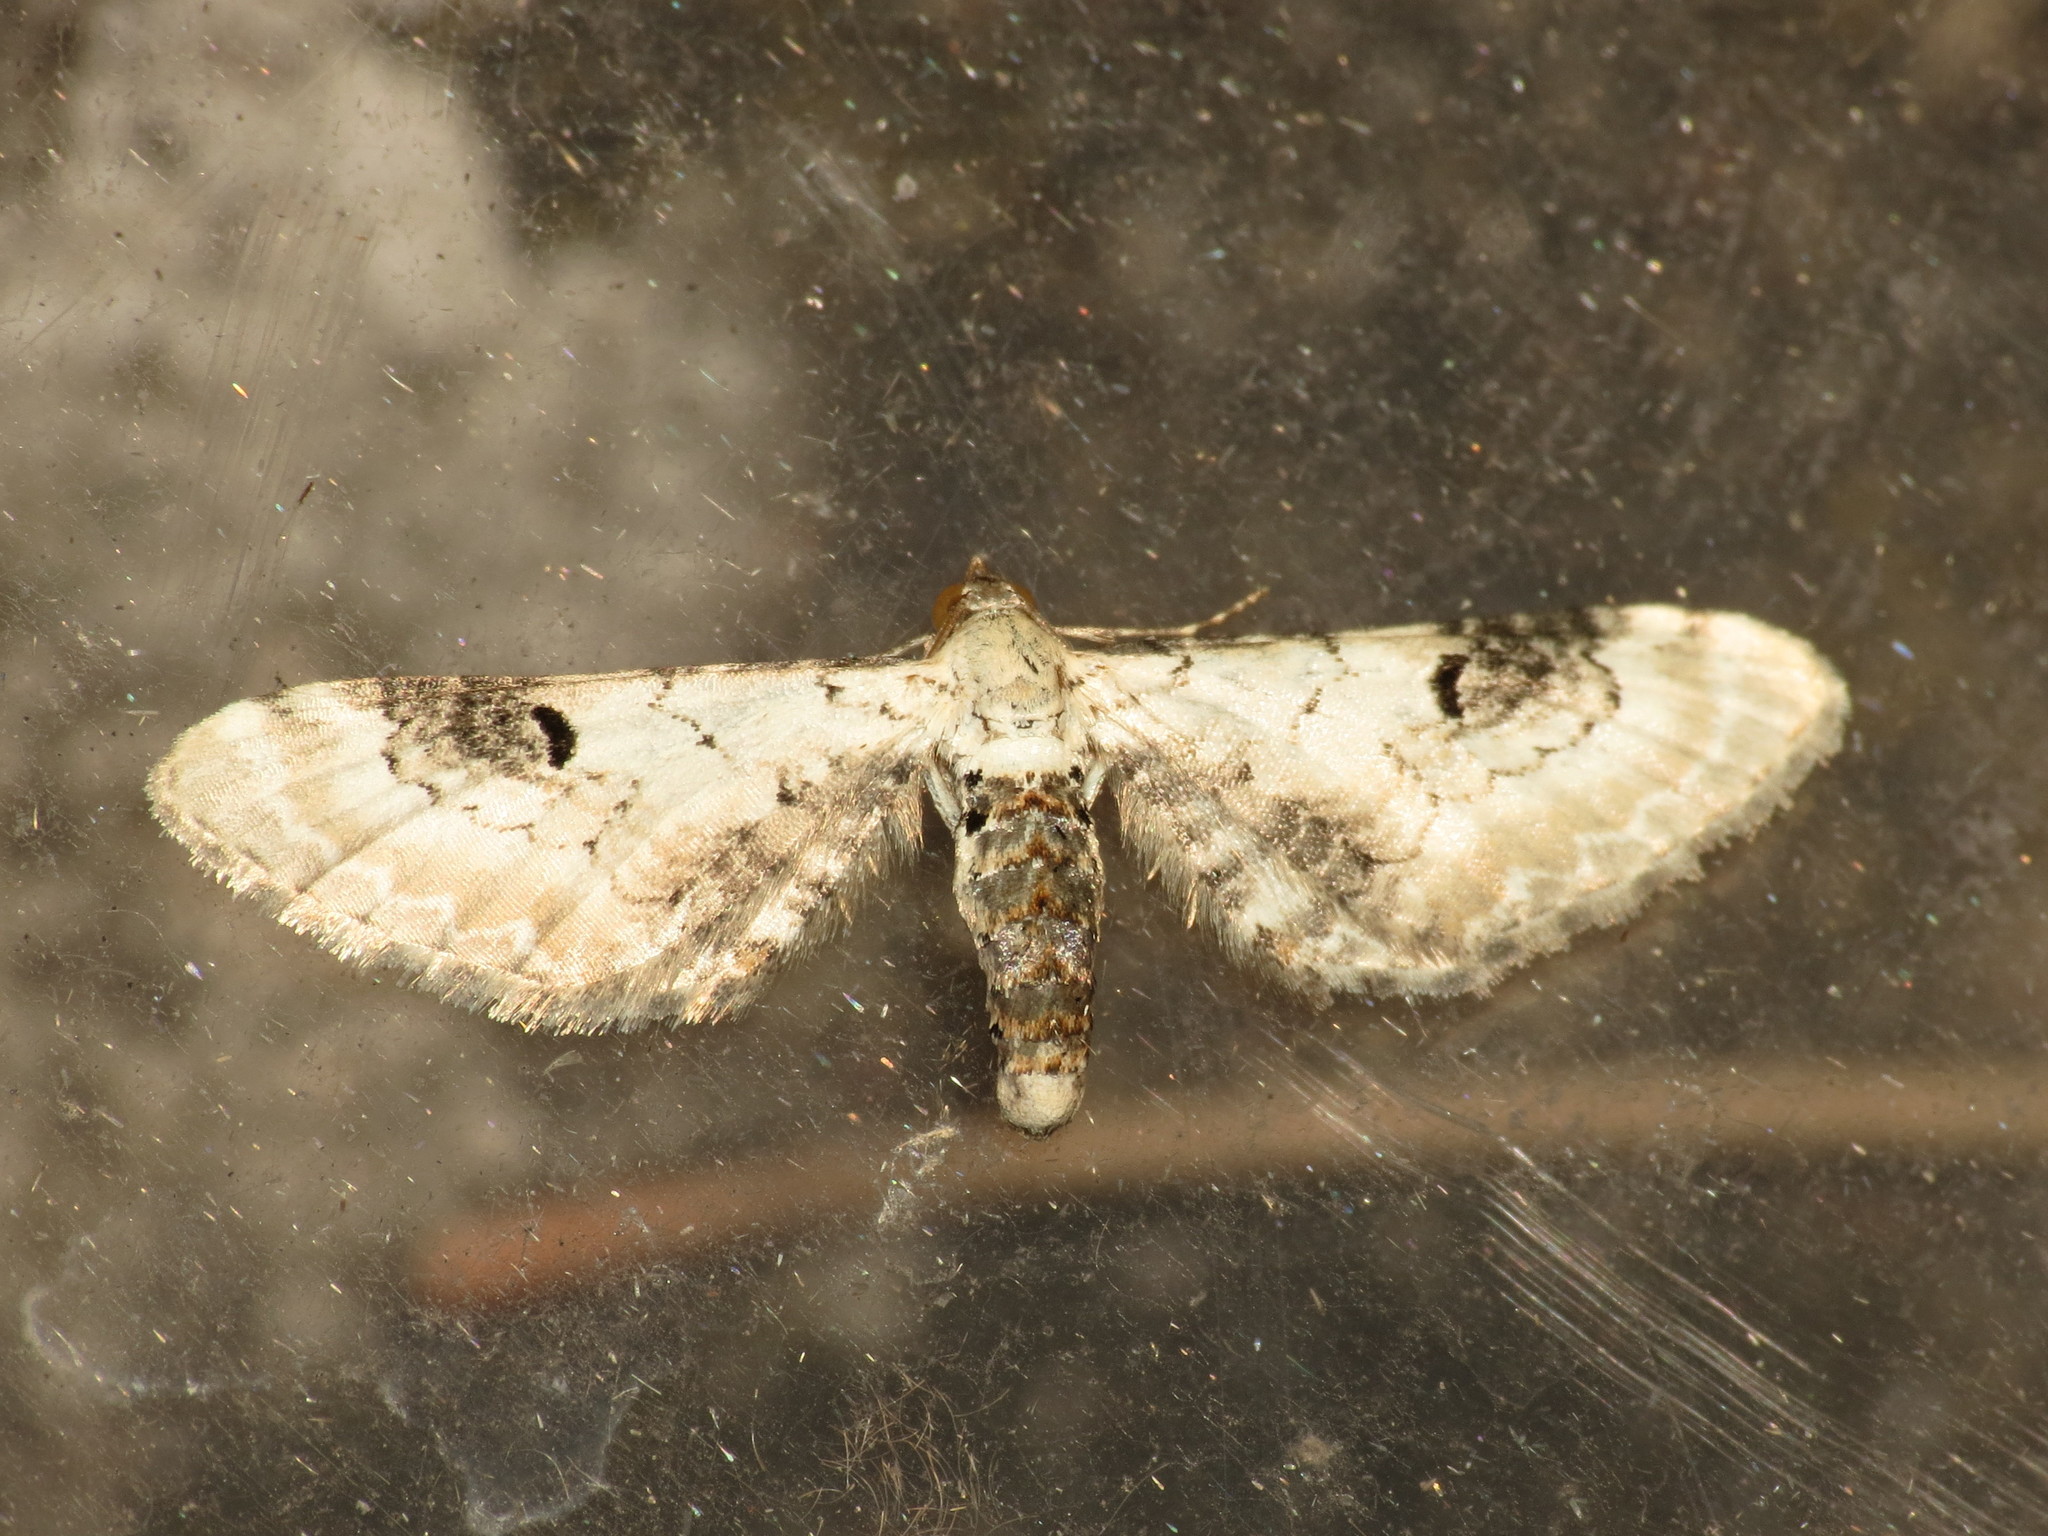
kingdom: Animalia
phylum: Arthropoda
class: Insecta
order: Lepidoptera
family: Geometridae
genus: Eupithecia
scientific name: Eupithecia centaureata
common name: Lime-speck pug
